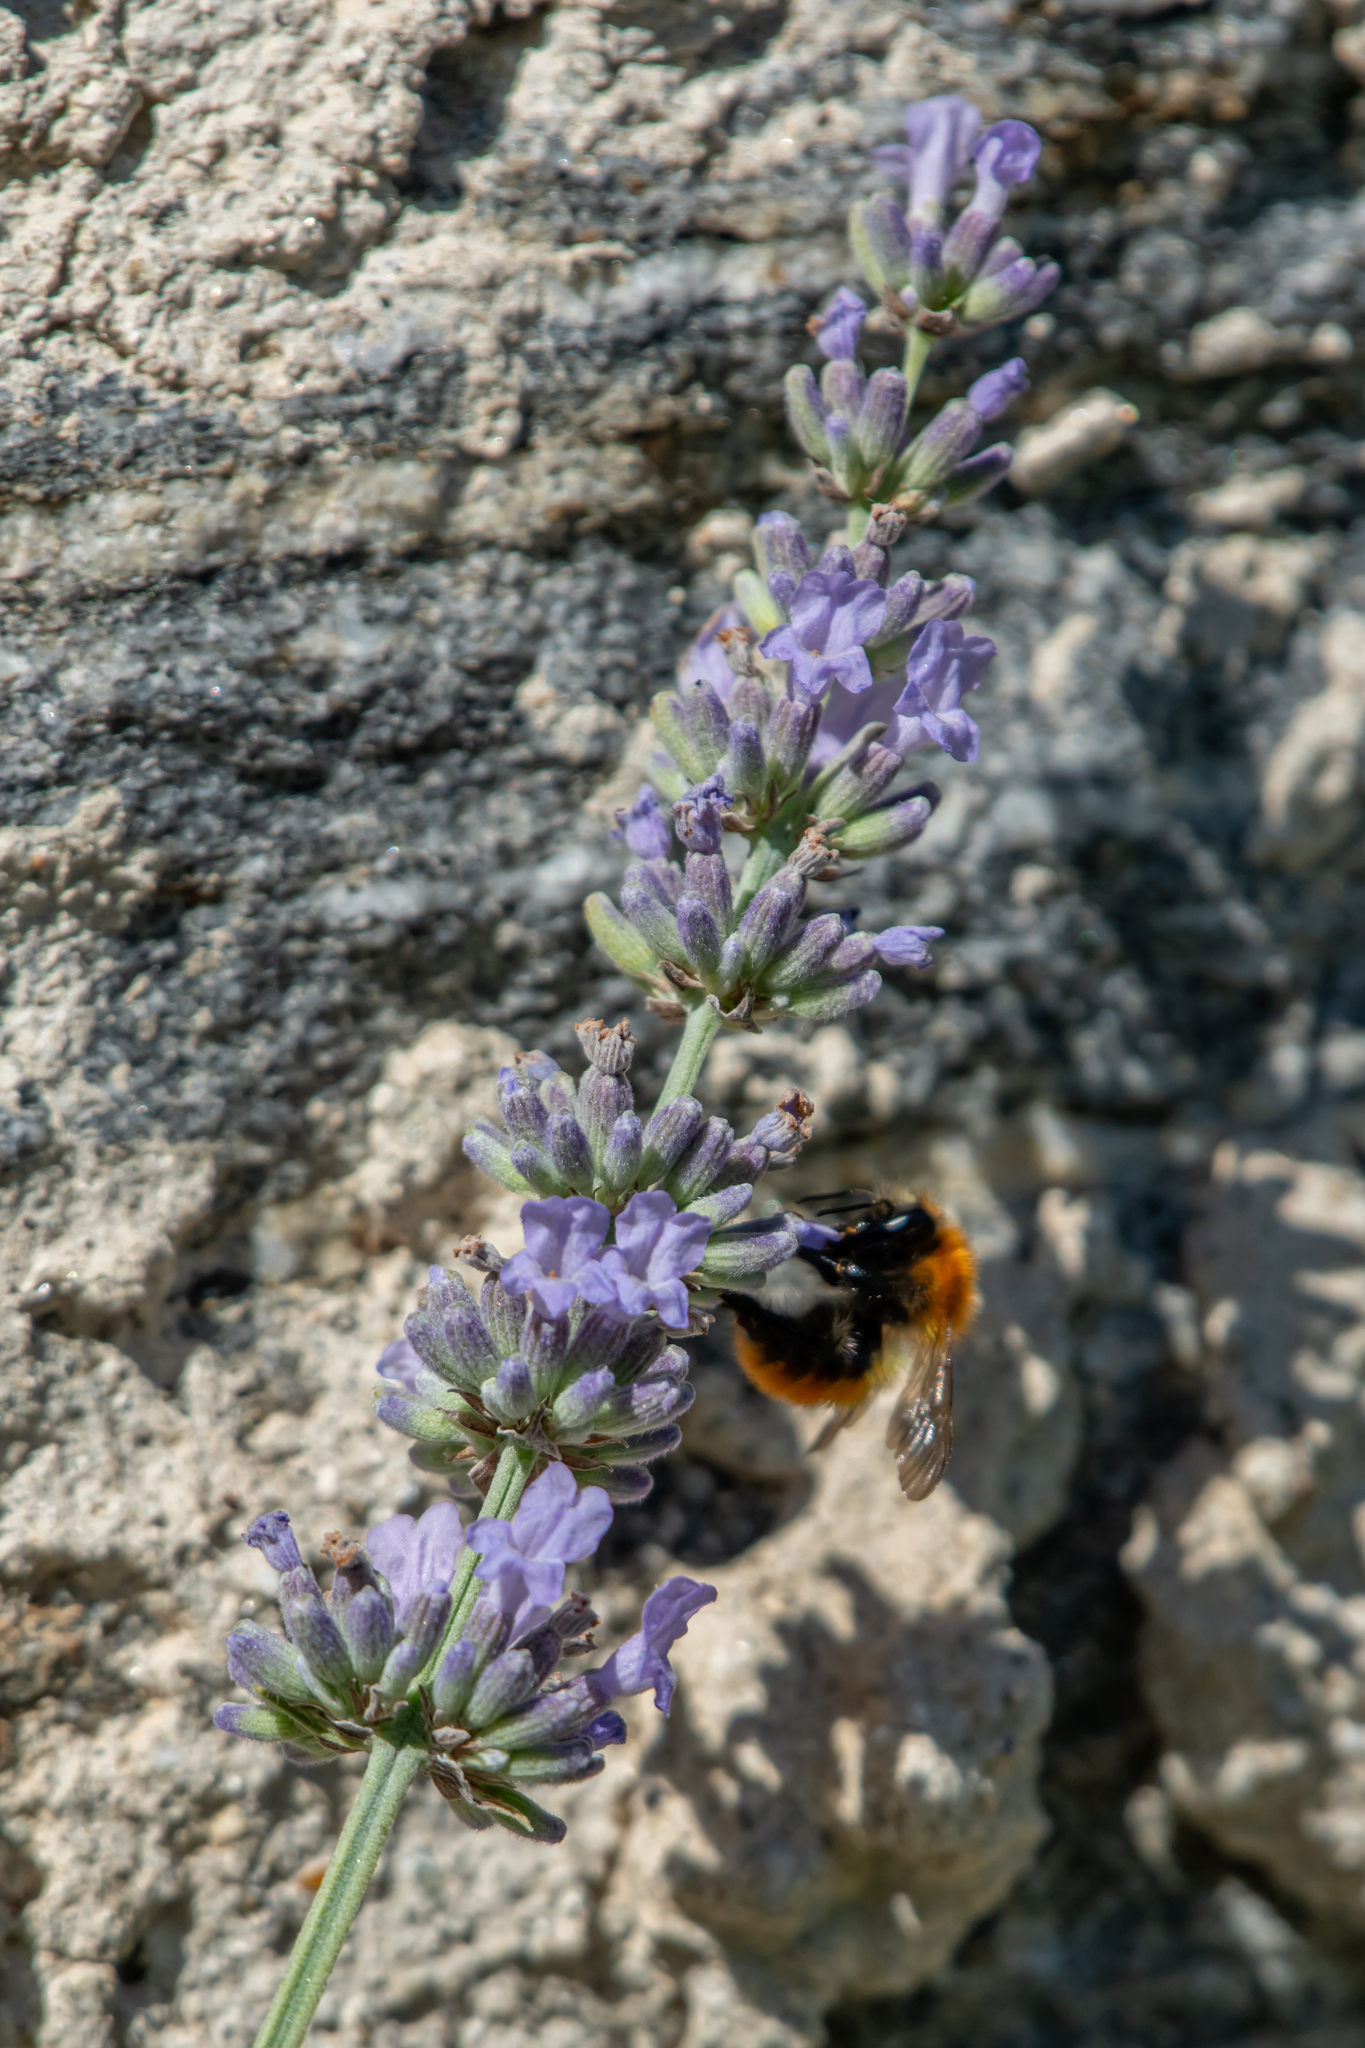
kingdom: Animalia
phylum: Arthropoda
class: Insecta
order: Hymenoptera
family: Apidae
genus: Bombus
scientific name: Bombus pascuorum
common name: Common carder bee
